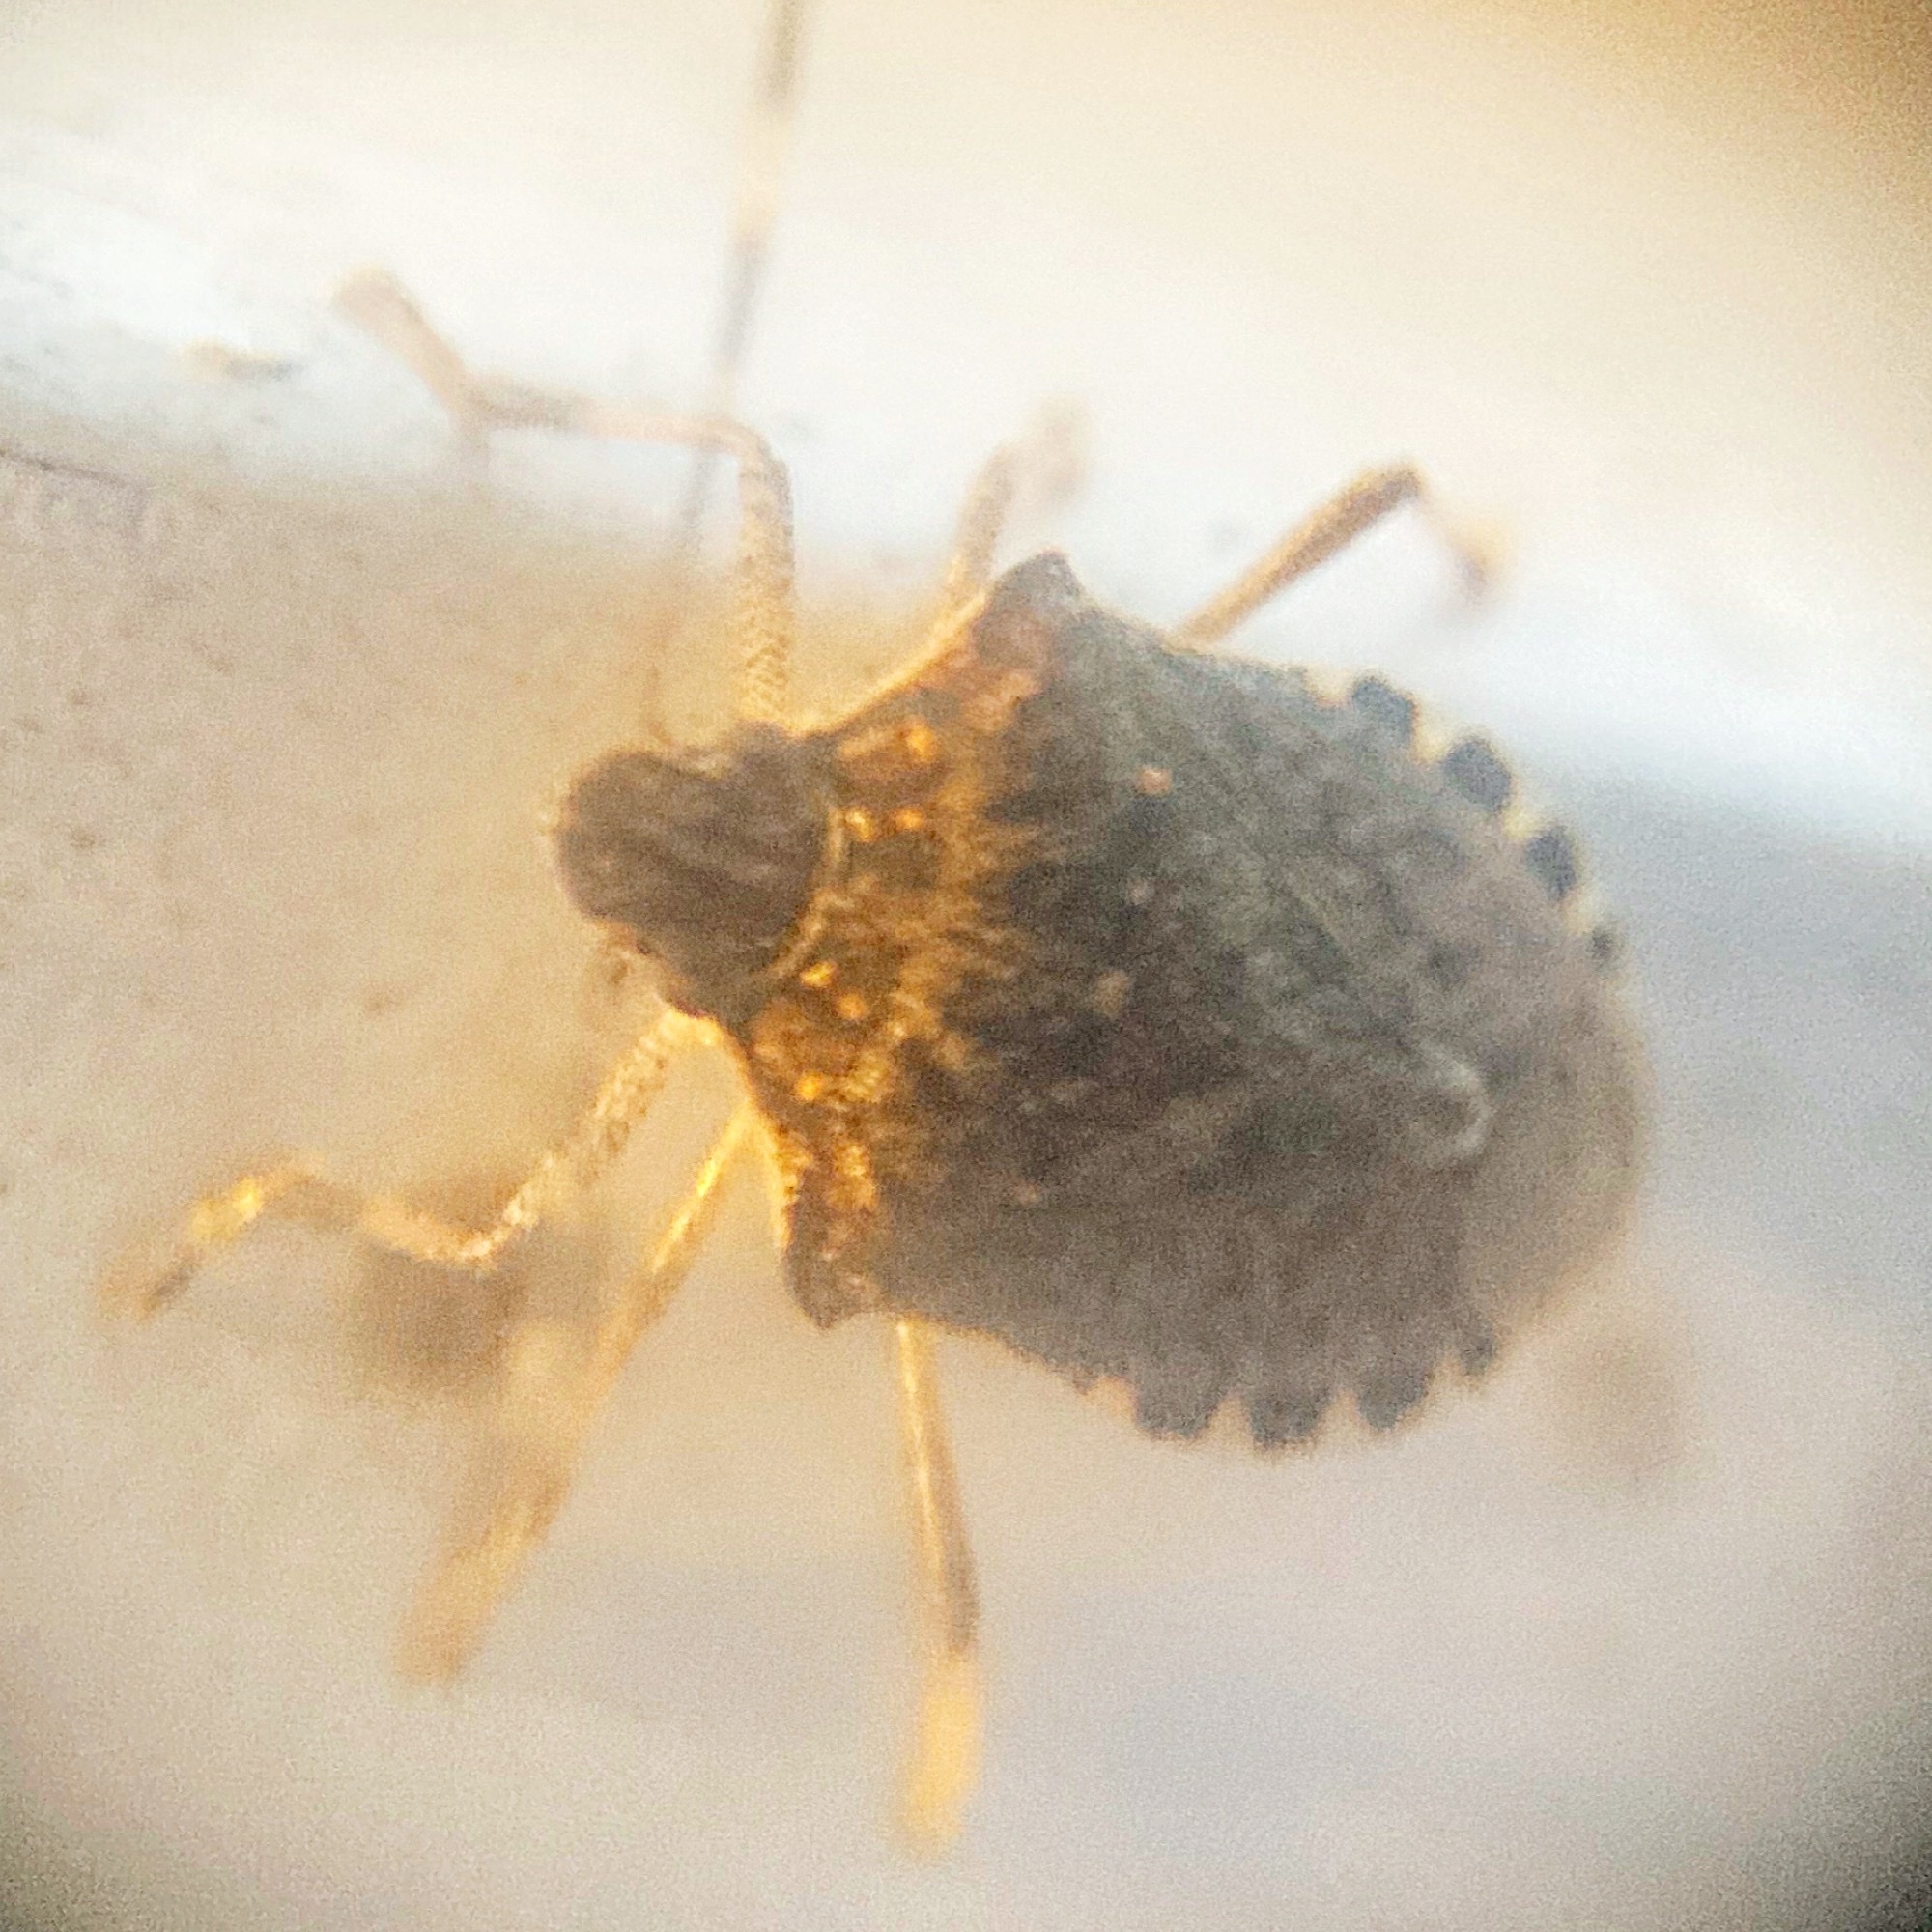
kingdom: Animalia
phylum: Arthropoda
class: Insecta
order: Hemiptera
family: Pentatomidae
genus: Halyomorpha
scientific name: Halyomorpha halys
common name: Brown marmorated stink bug
